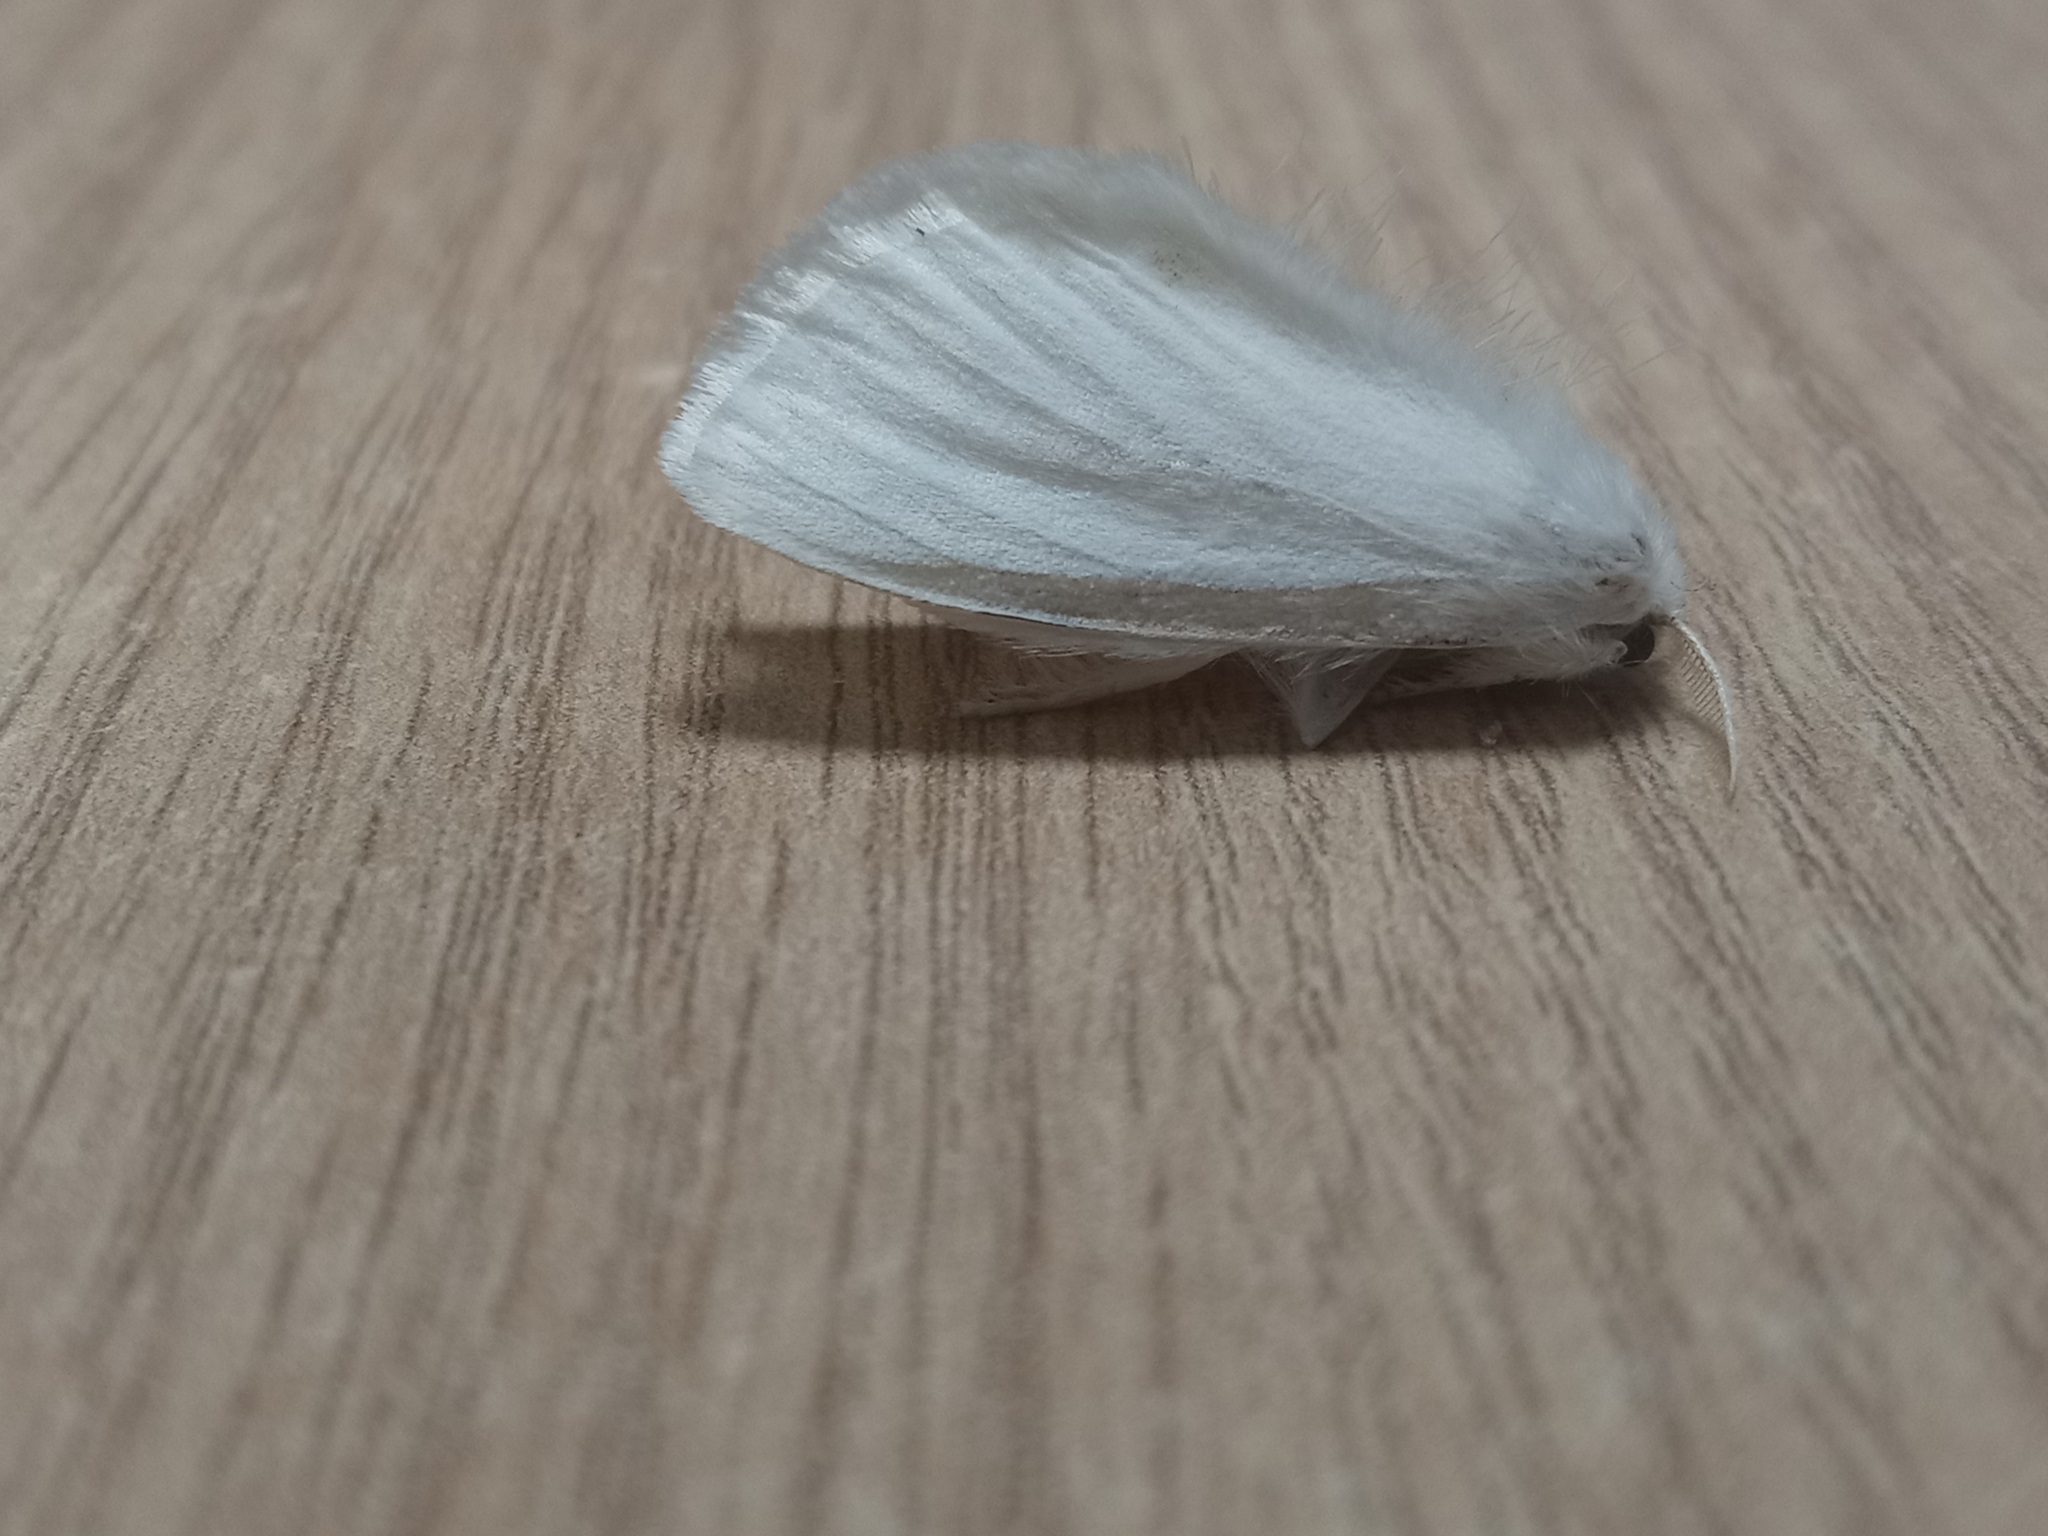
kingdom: Animalia
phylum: Arthropoda
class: Insecta
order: Lepidoptera
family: Erebidae
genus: Sphrageidus
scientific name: Sphrageidus similis
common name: Yellow-tail
